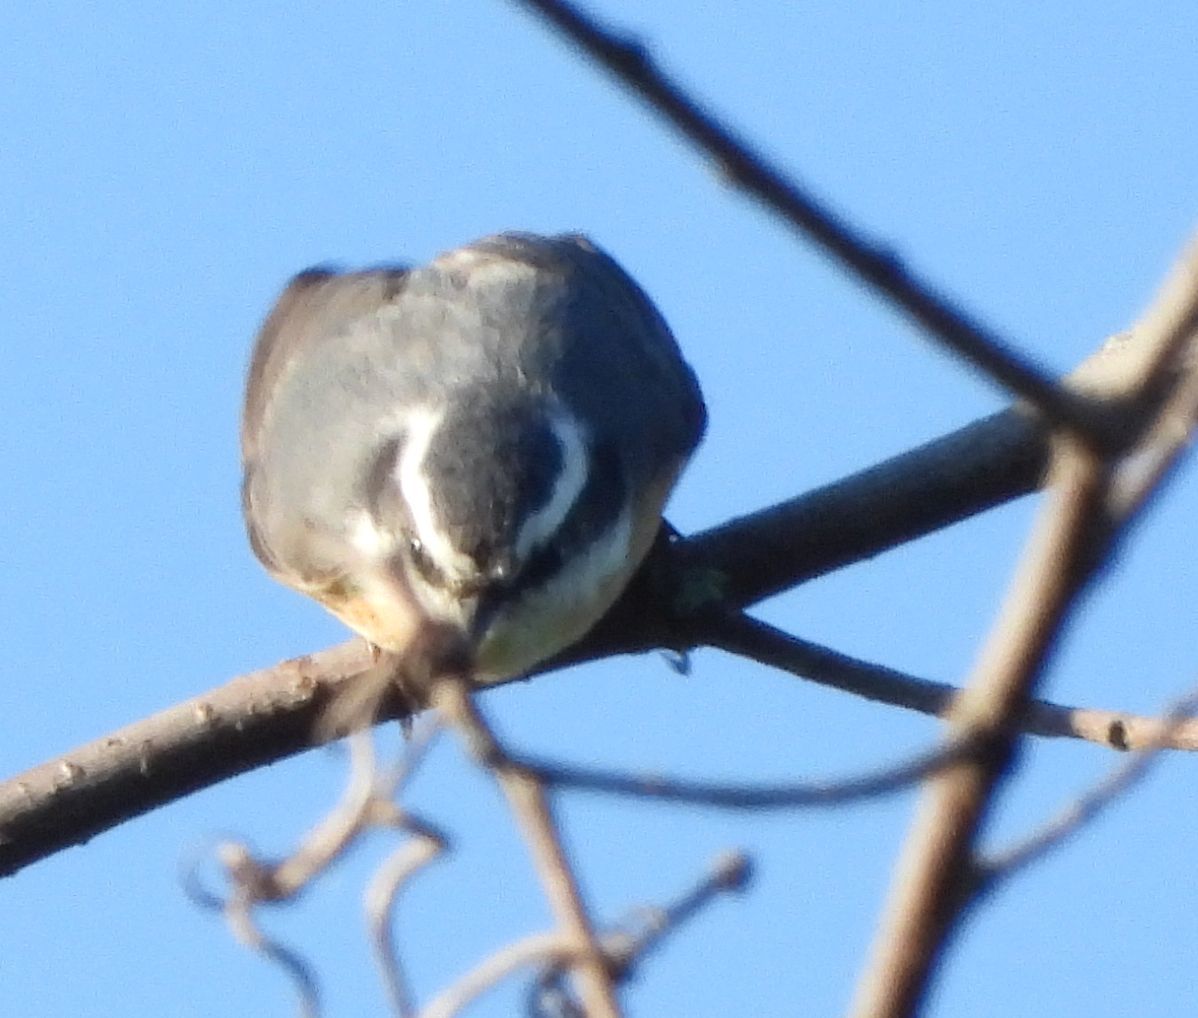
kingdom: Animalia
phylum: Chordata
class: Aves
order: Passeriformes
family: Sittidae
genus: Sitta
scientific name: Sitta canadensis
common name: Red-breasted nuthatch
